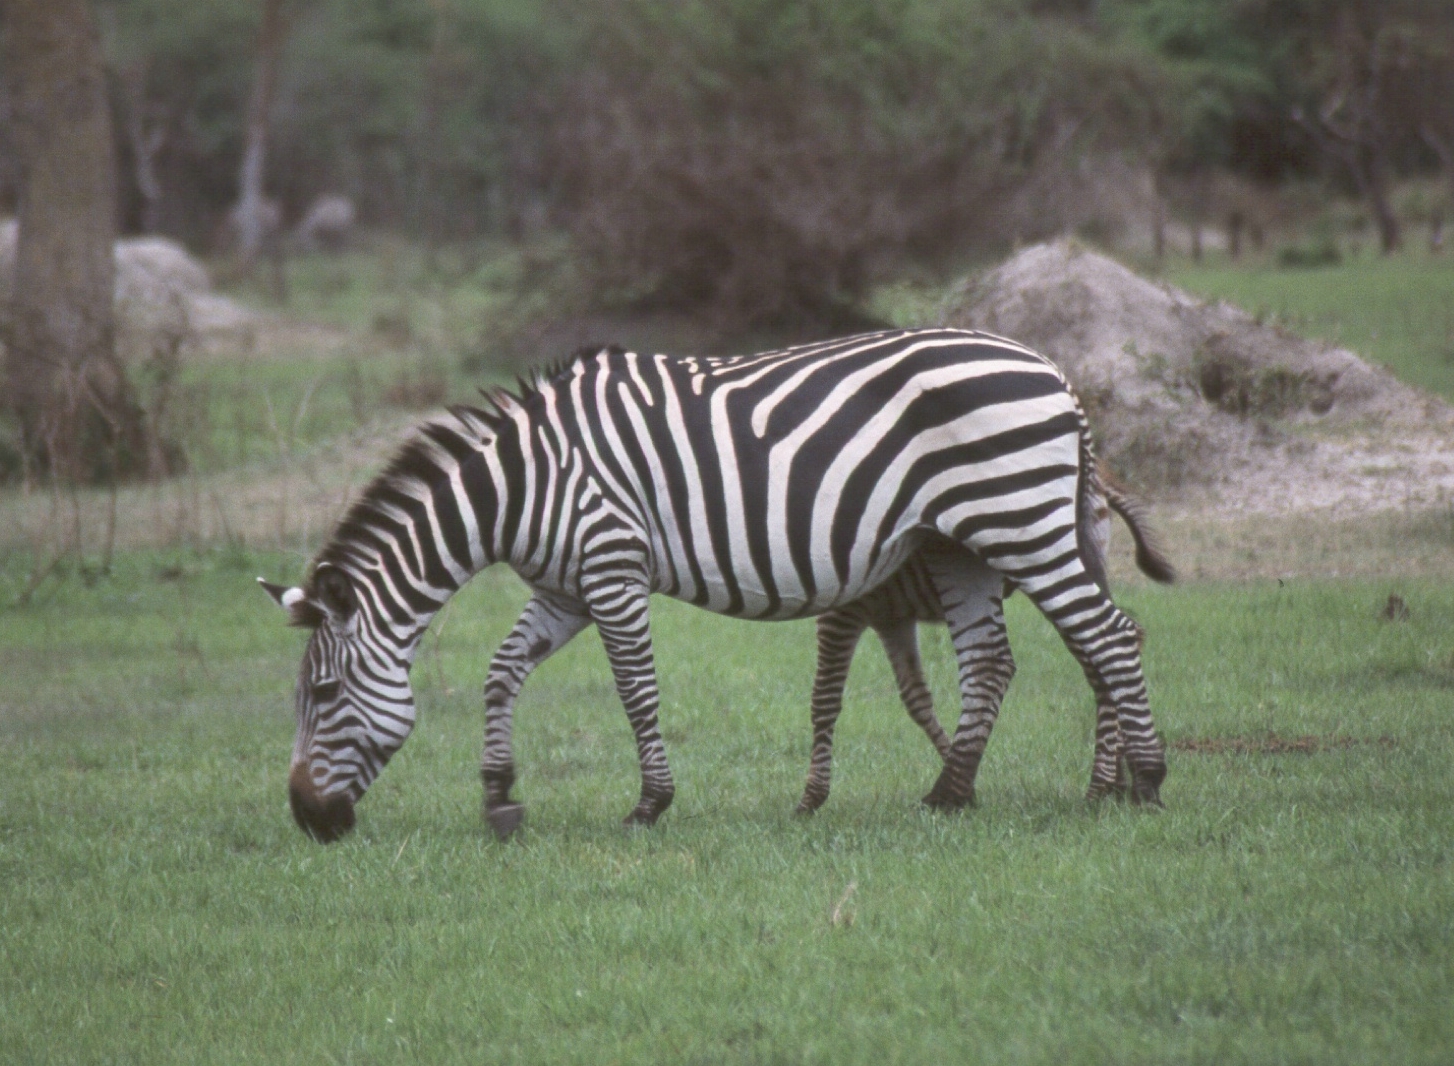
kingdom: Animalia
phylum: Chordata
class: Mammalia
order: Perissodactyla
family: Equidae
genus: Equus
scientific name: Equus quagga
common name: Plains zebra
